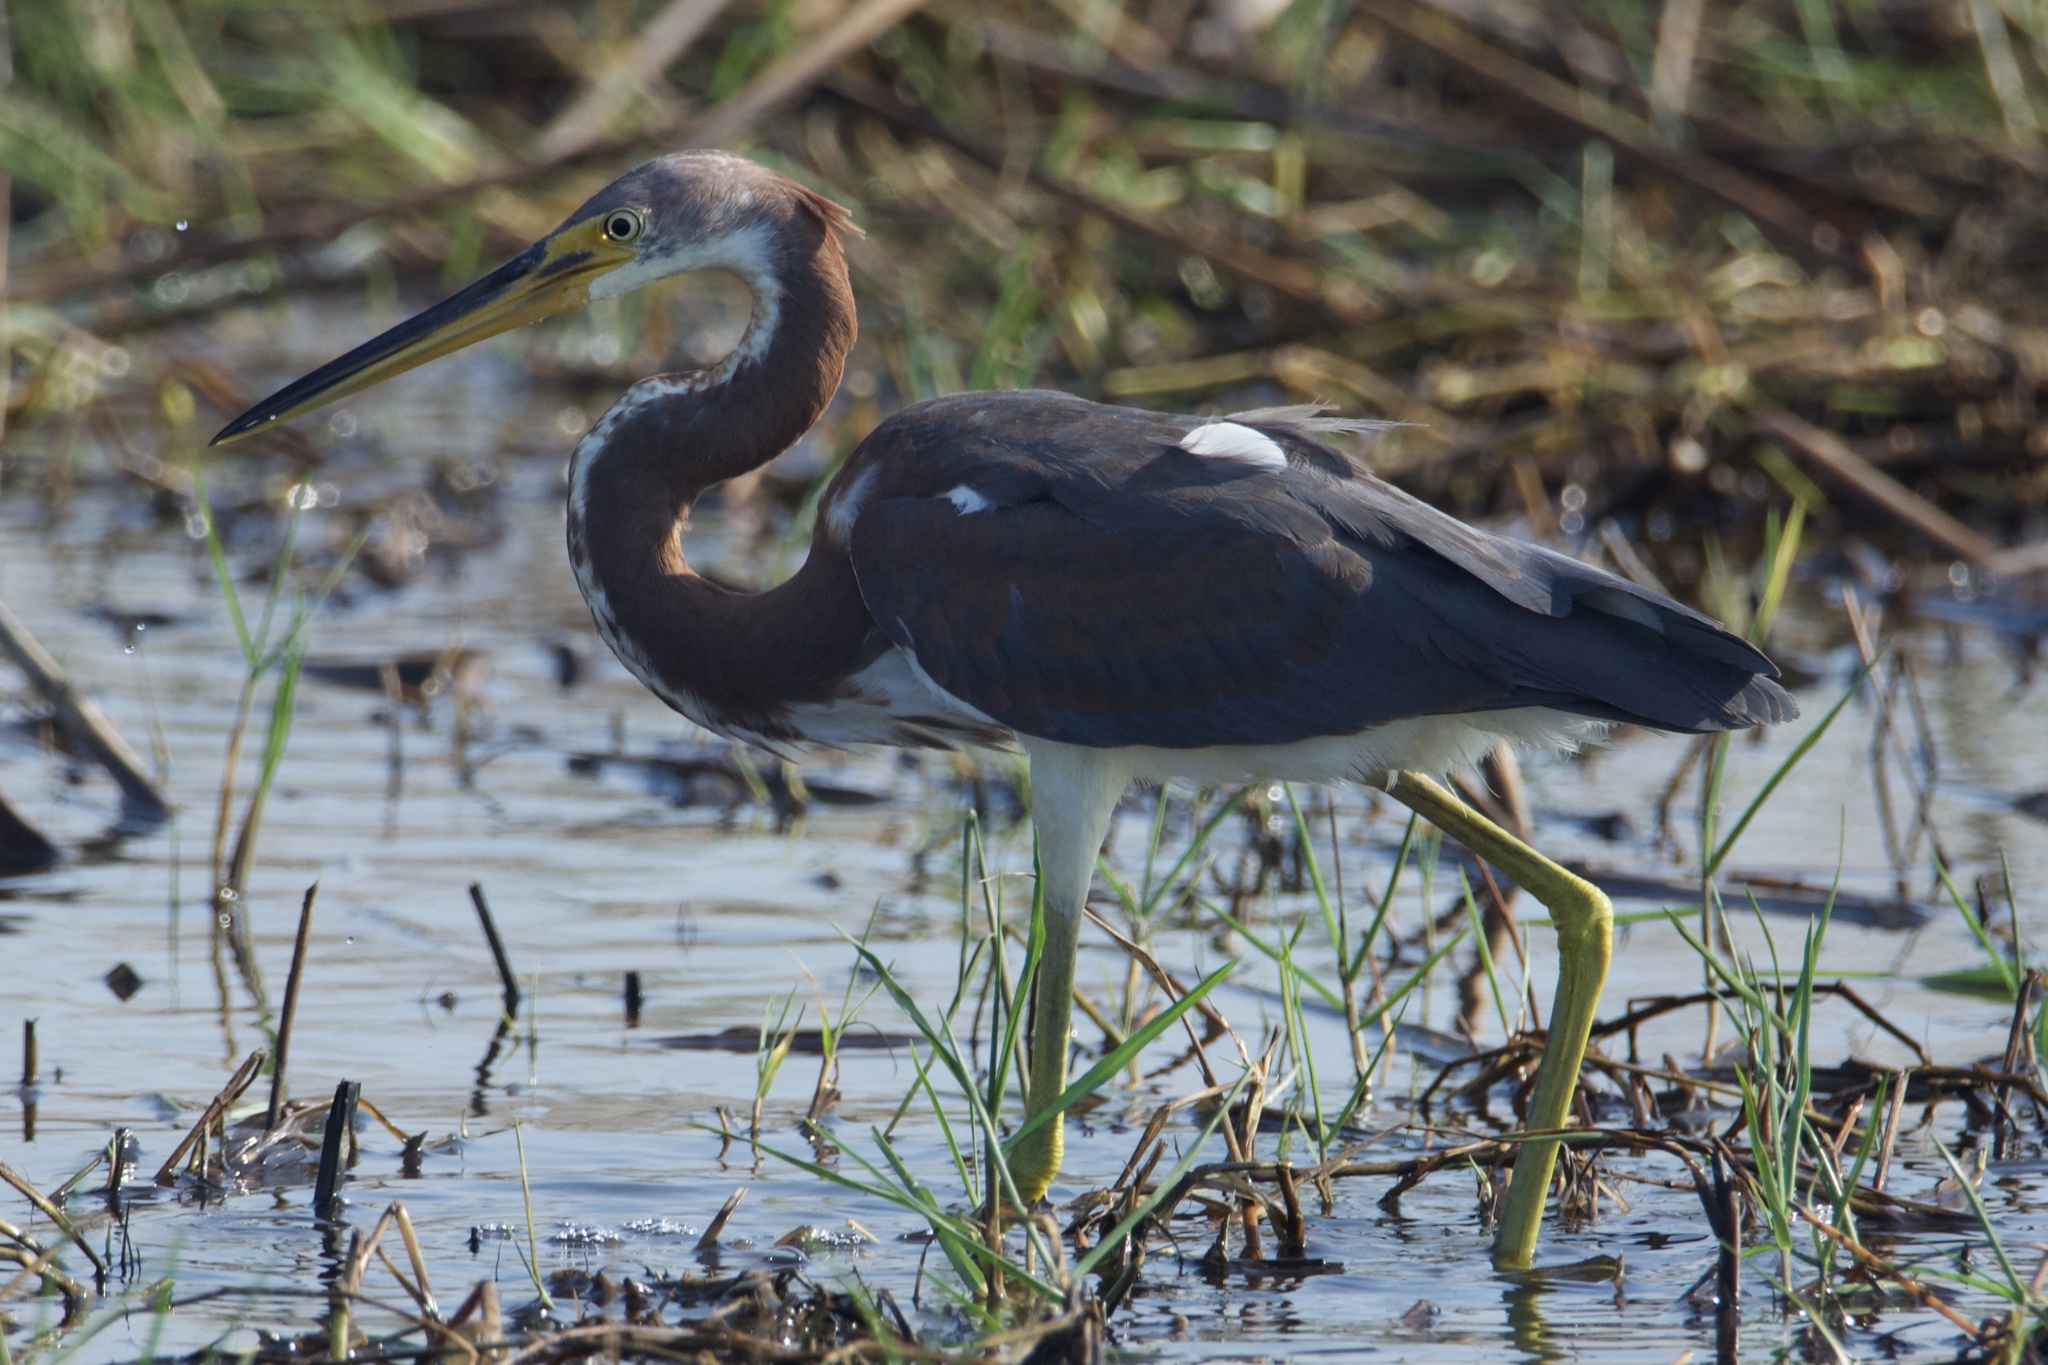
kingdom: Animalia
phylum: Chordata
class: Aves
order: Pelecaniformes
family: Ardeidae
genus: Egretta
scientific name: Egretta tricolor
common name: Tricolored heron
